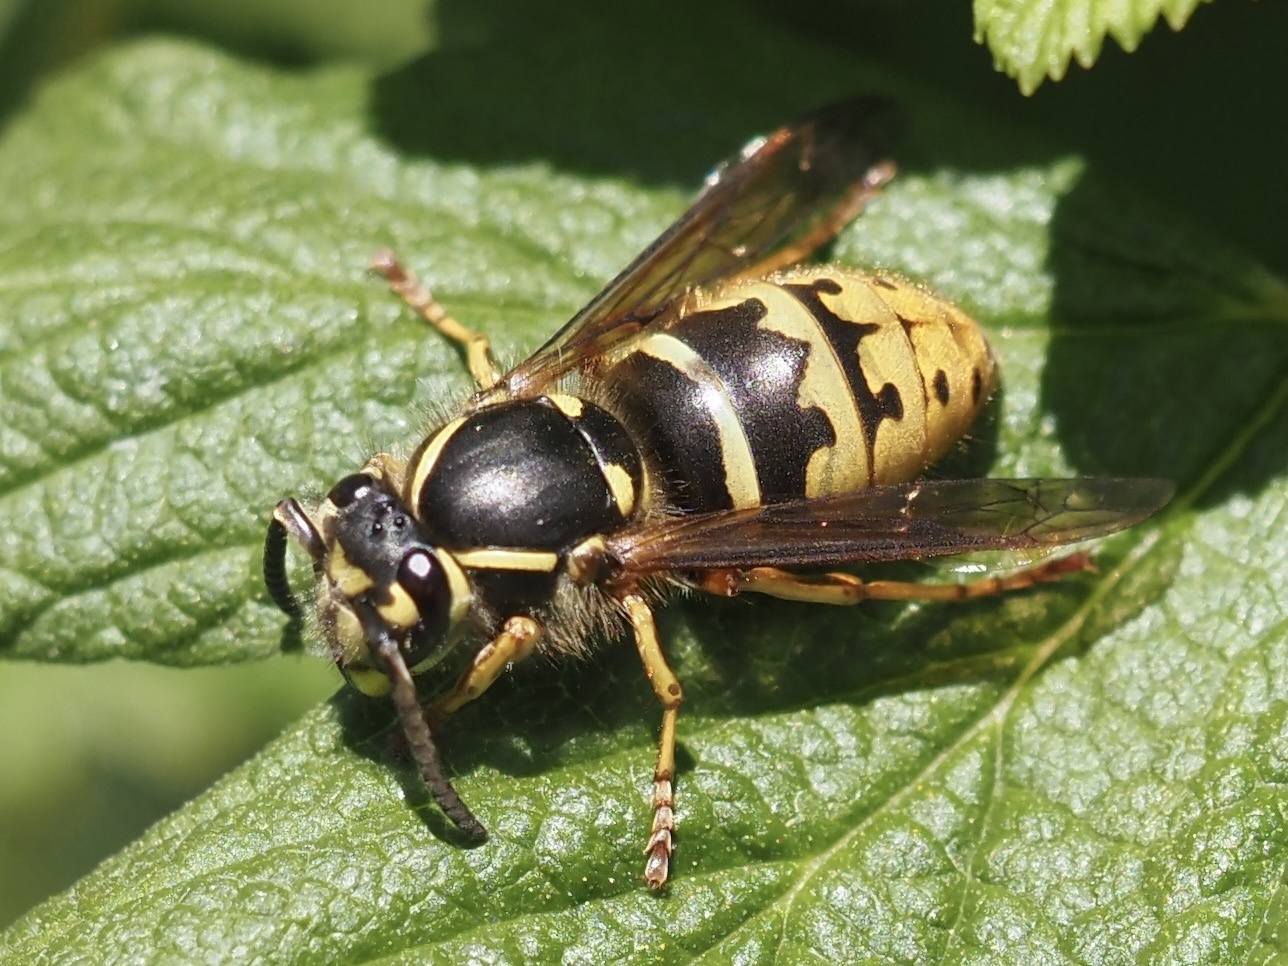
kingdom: Animalia
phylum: Arthropoda
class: Insecta
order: Hymenoptera
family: Vespidae
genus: Vespula
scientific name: Vespula alascensis
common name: Alaska yellowjacket
